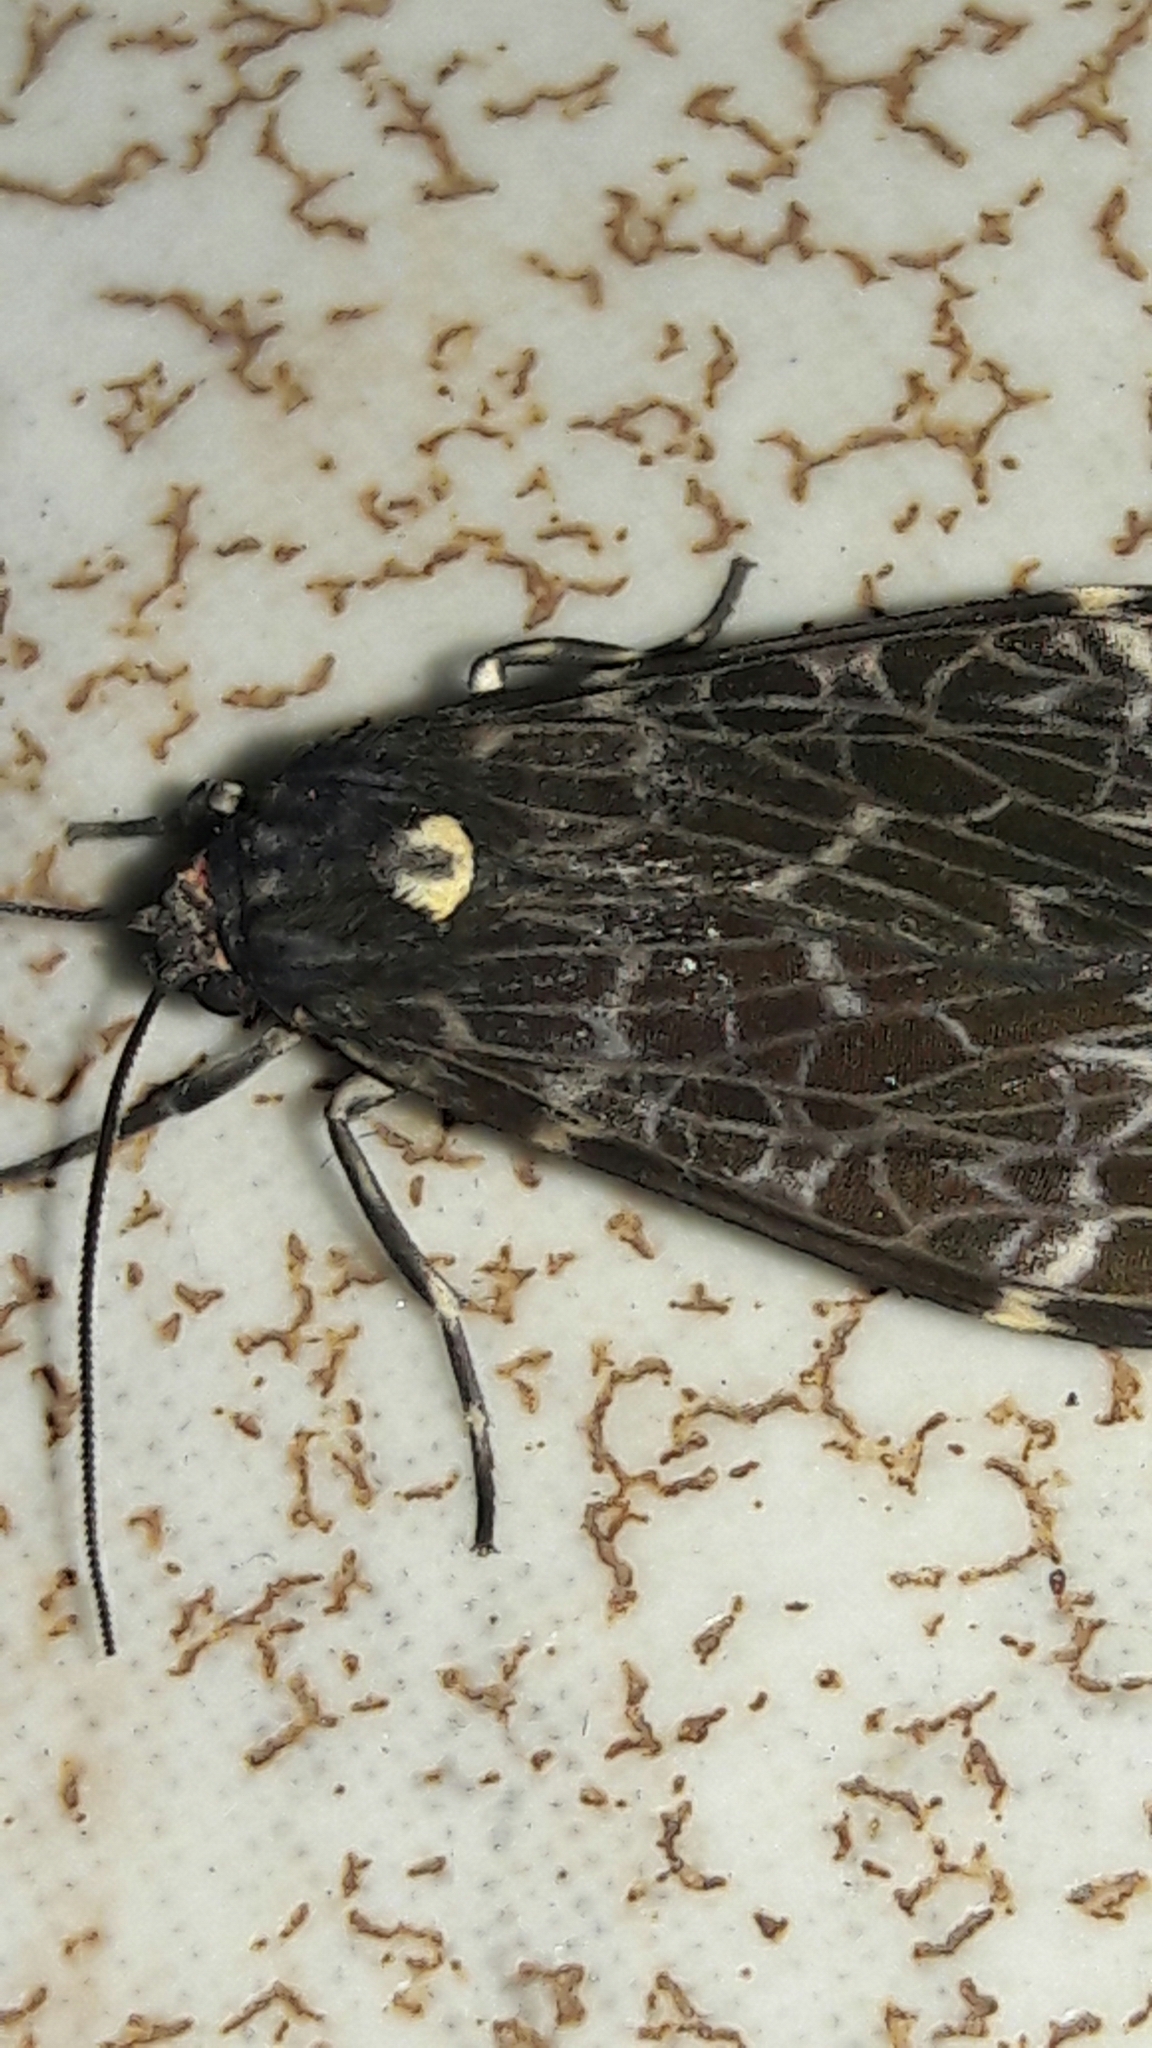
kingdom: Animalia
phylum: Arthropoda
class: Insecta
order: Lepidoptera
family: Erebidae
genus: Eucereon
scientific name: Eucereon sylvius
